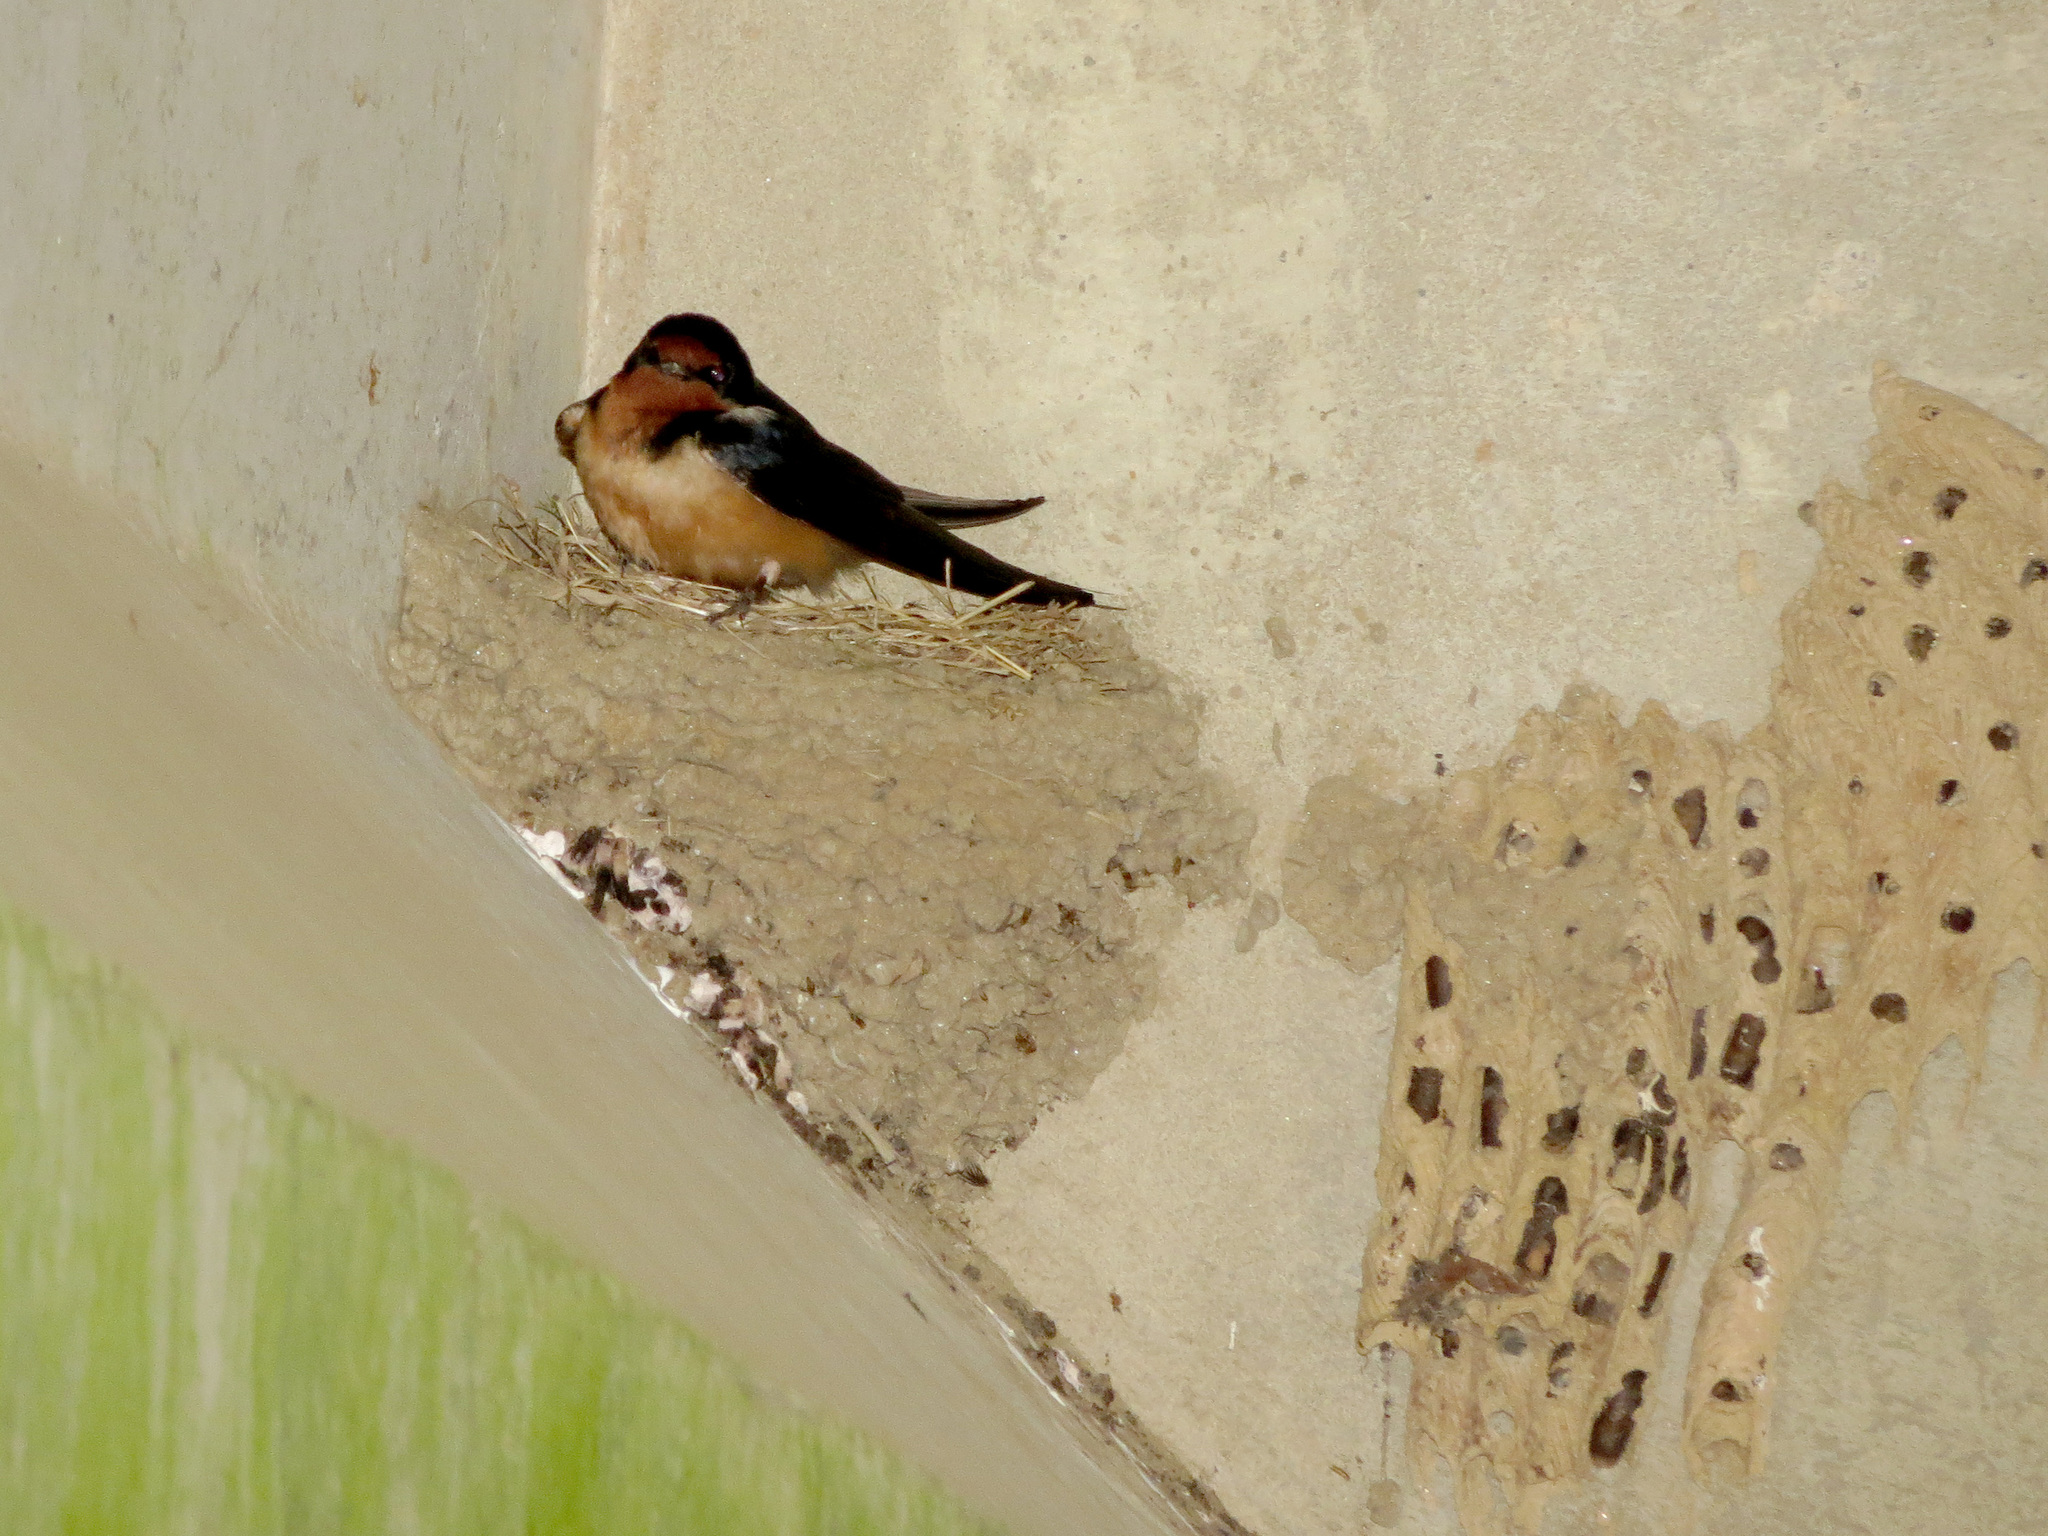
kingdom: Animalia
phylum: Chordata
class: Aves
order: Passeriformes
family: Hirundinidae
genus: Hirundo
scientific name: Hirundo rustica
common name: Barn swallow
